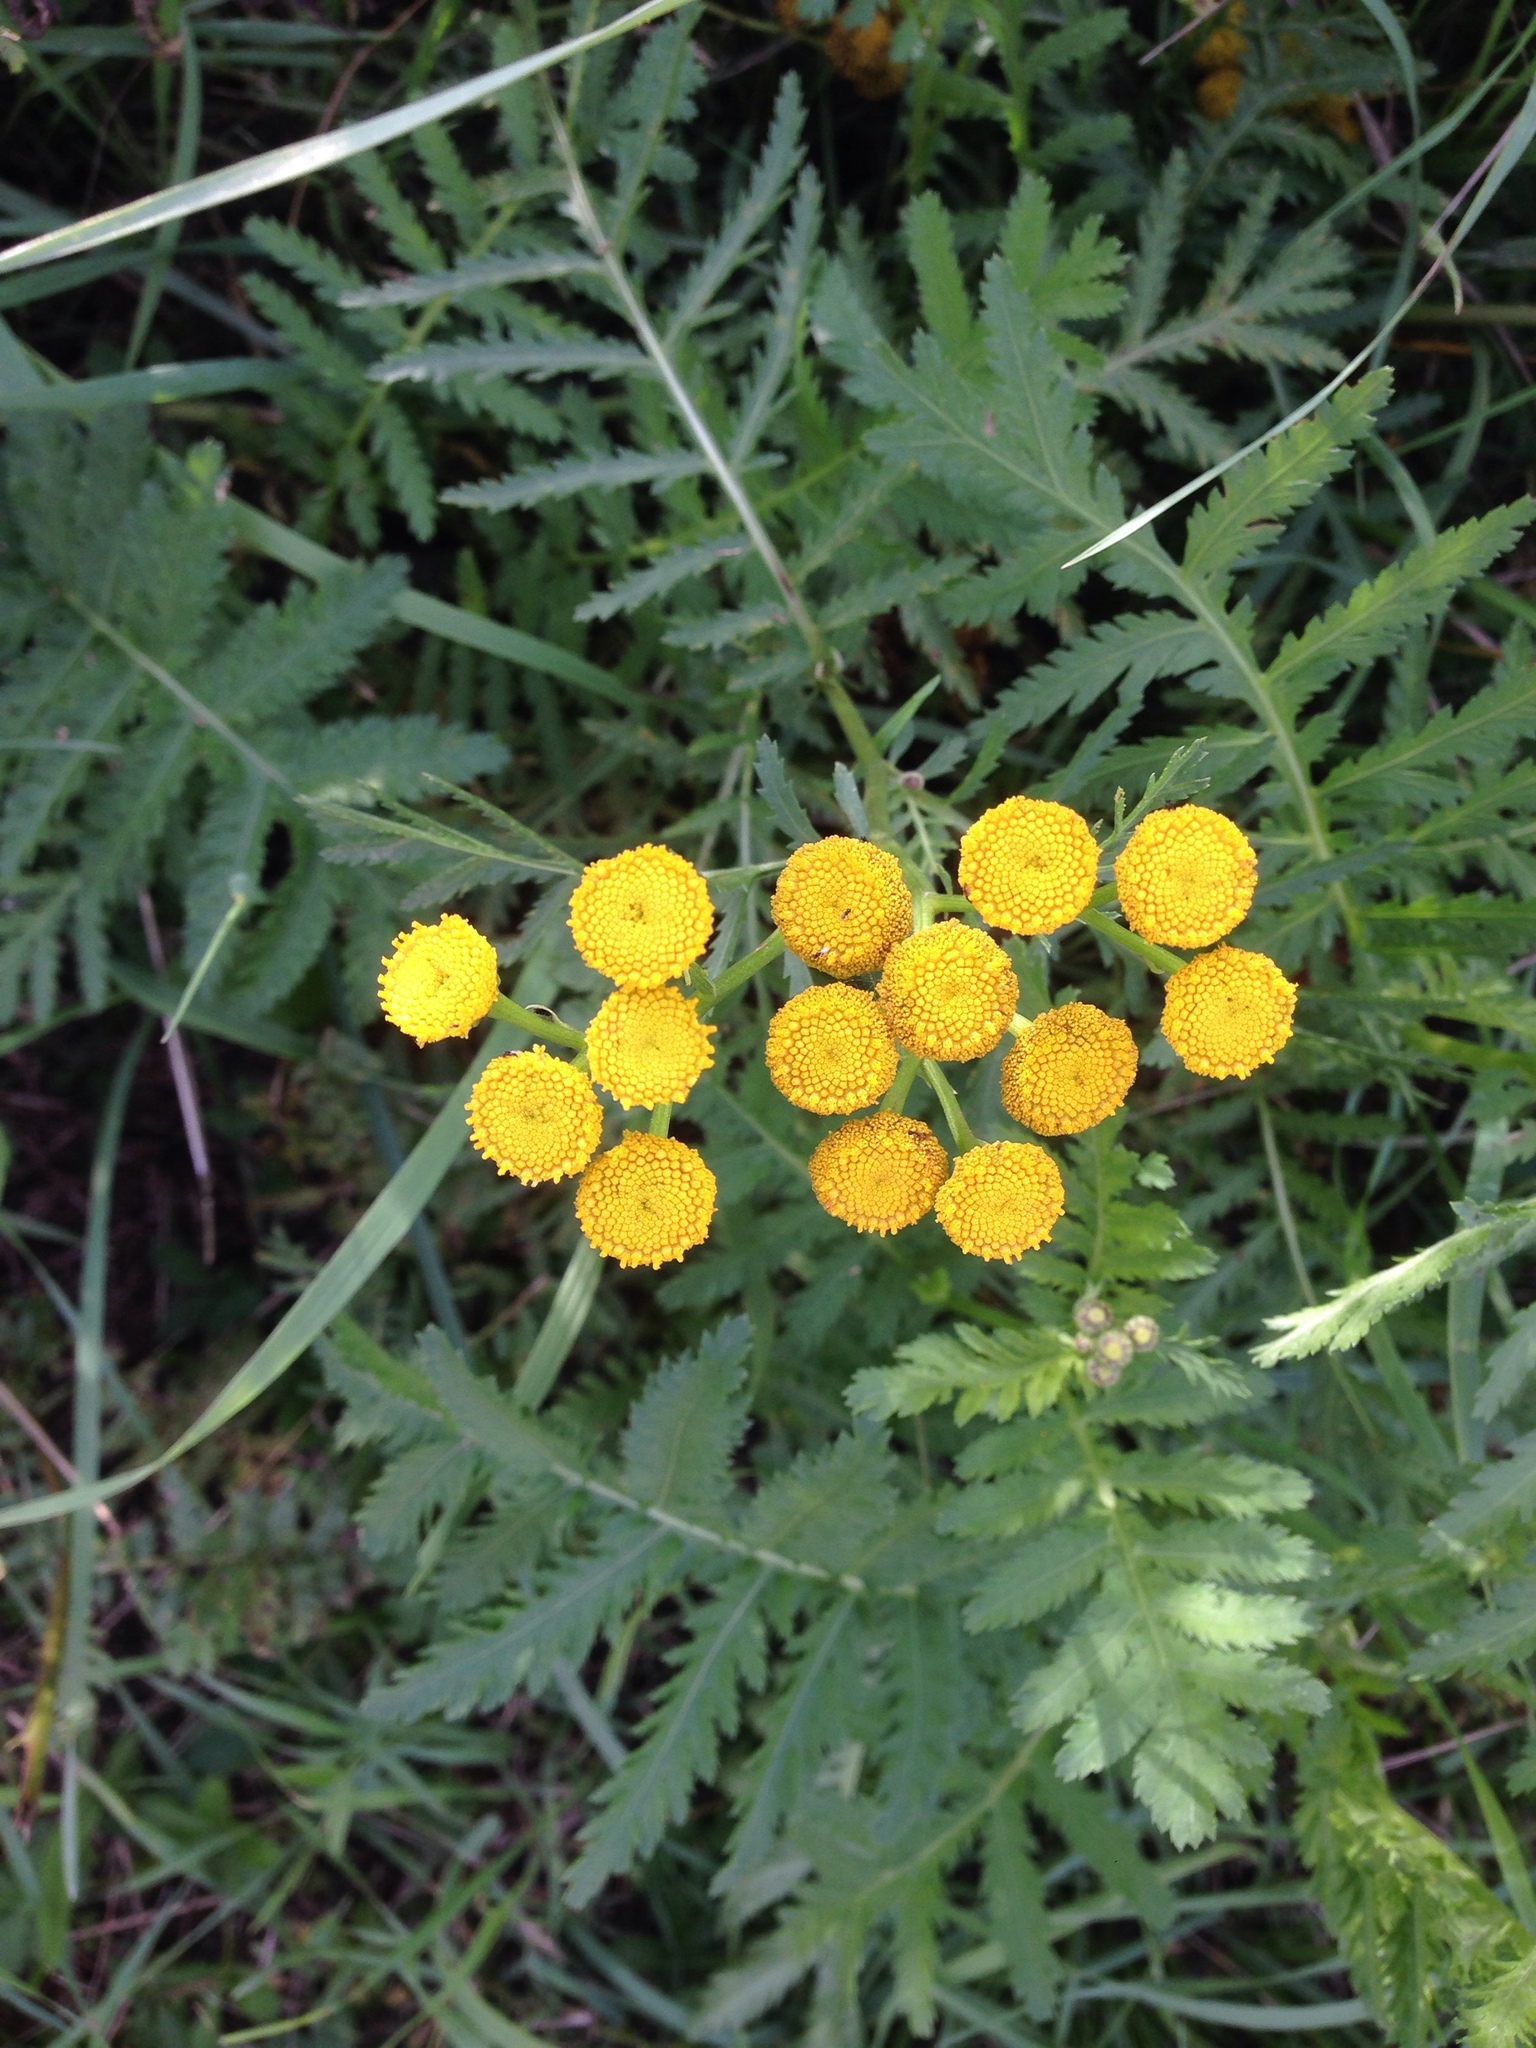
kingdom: Plantae
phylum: Tracheophyta
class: Magnoliopsida
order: Asterales
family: Asteraceae
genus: Tanacetum
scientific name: Tanacetum vulgare
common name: Common tansy
